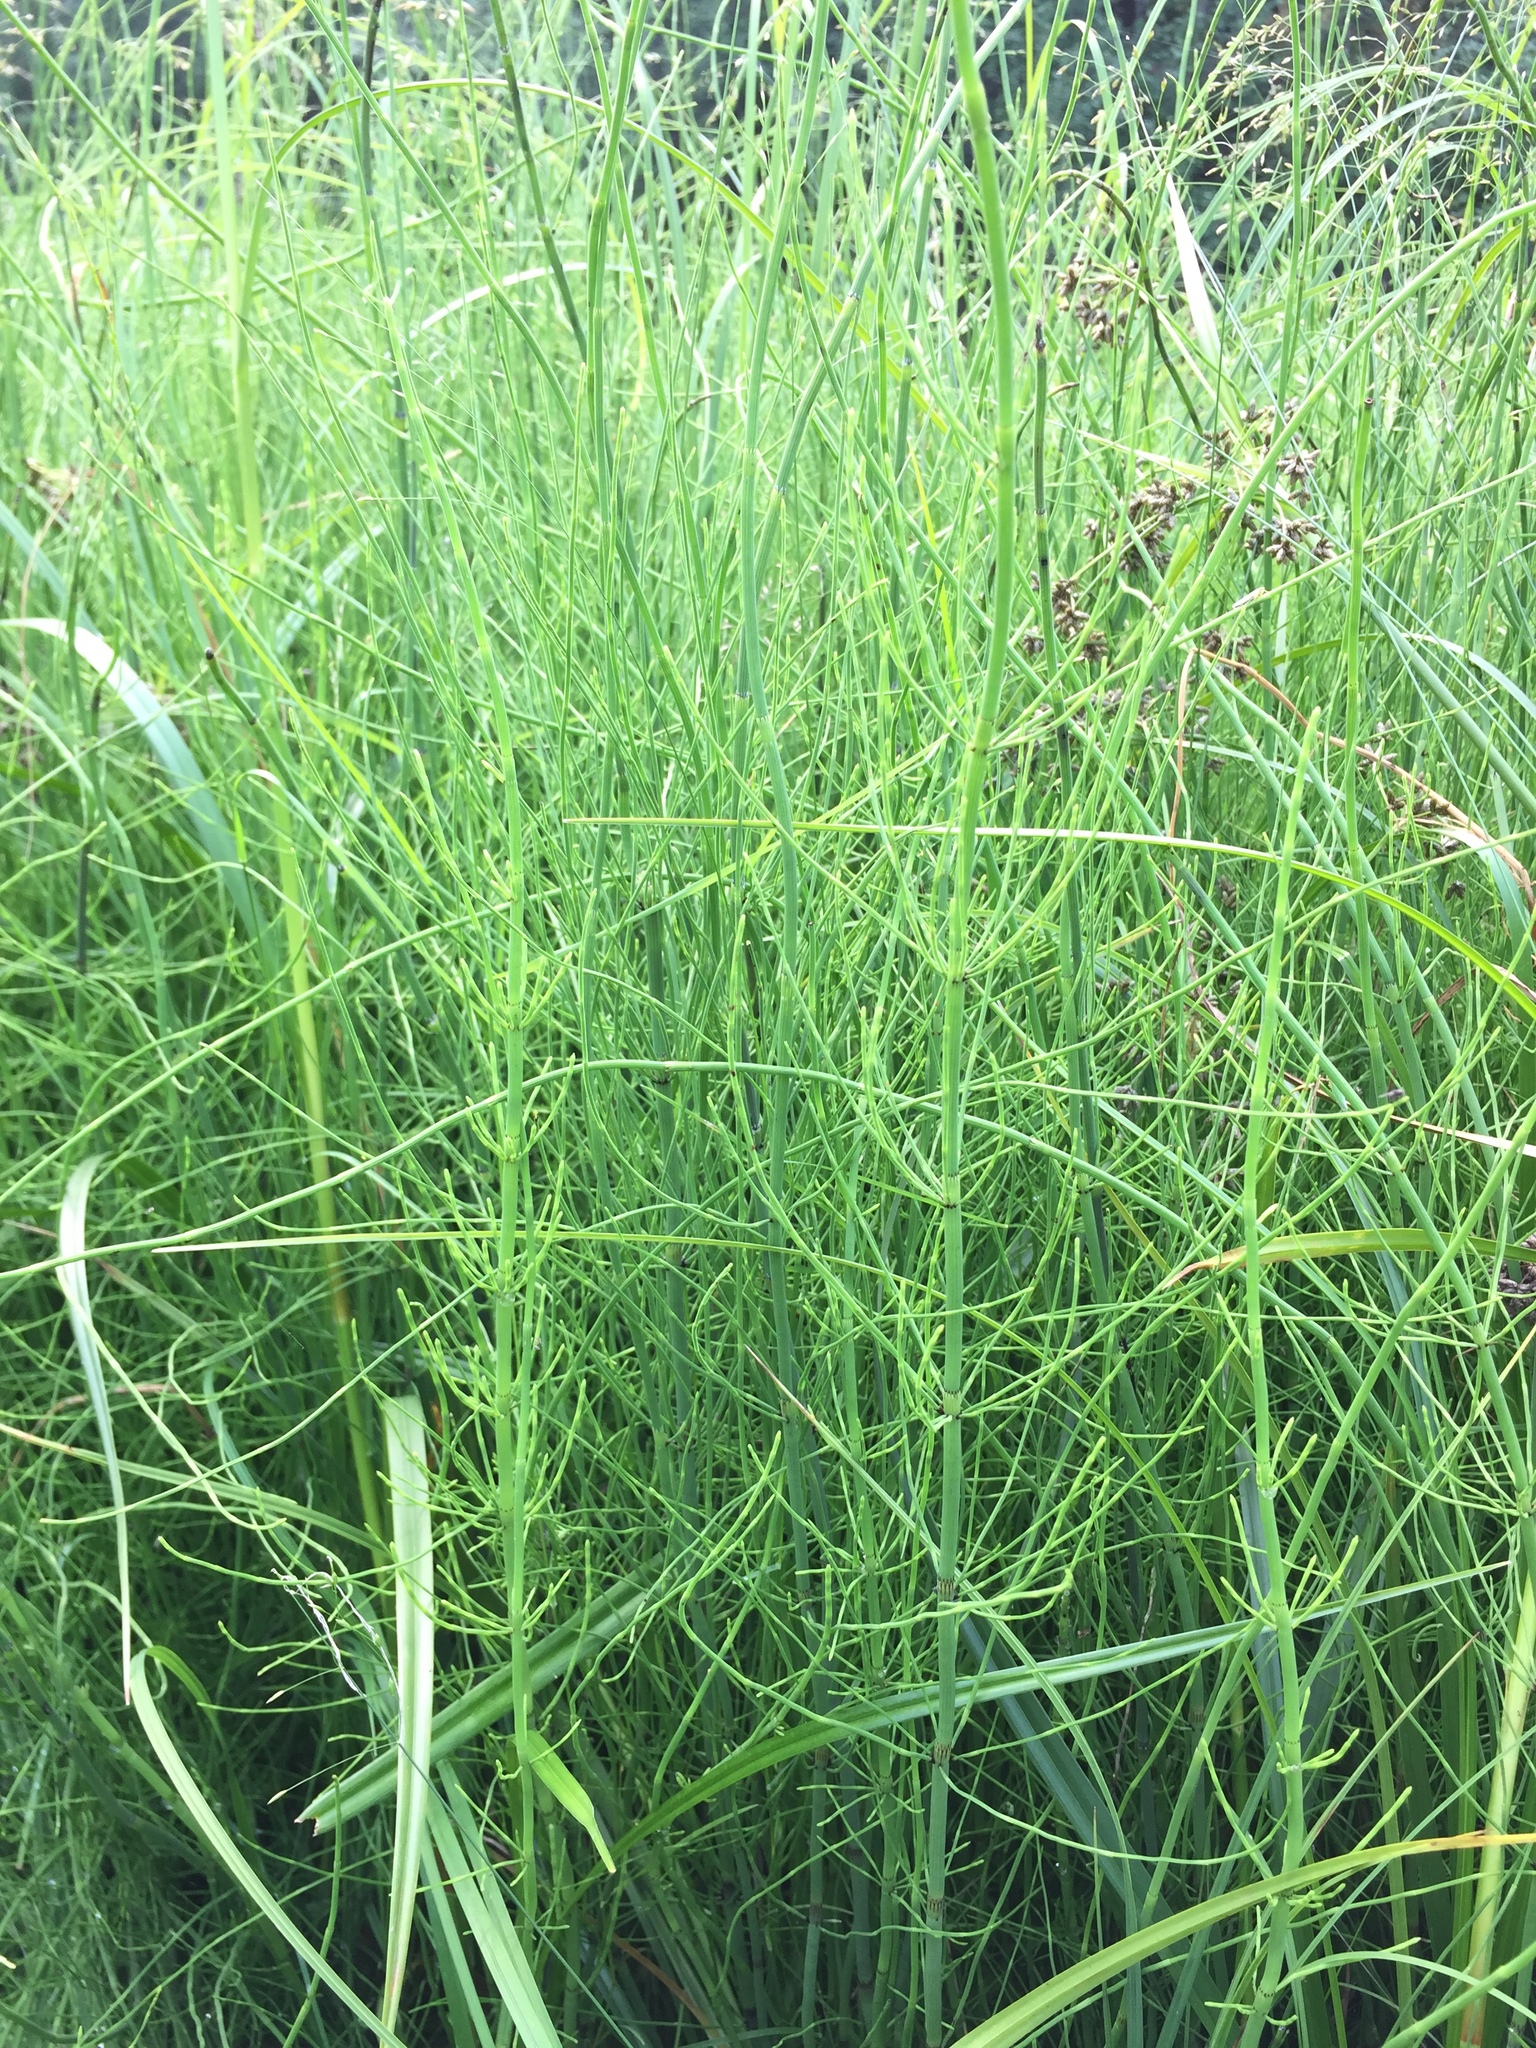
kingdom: Plantae
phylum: Tracheophyta
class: Polypodiopsida
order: Equisetales
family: Equisetaceae
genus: Equisetum
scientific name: Equisetum fluviatile
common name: Water horsetail
